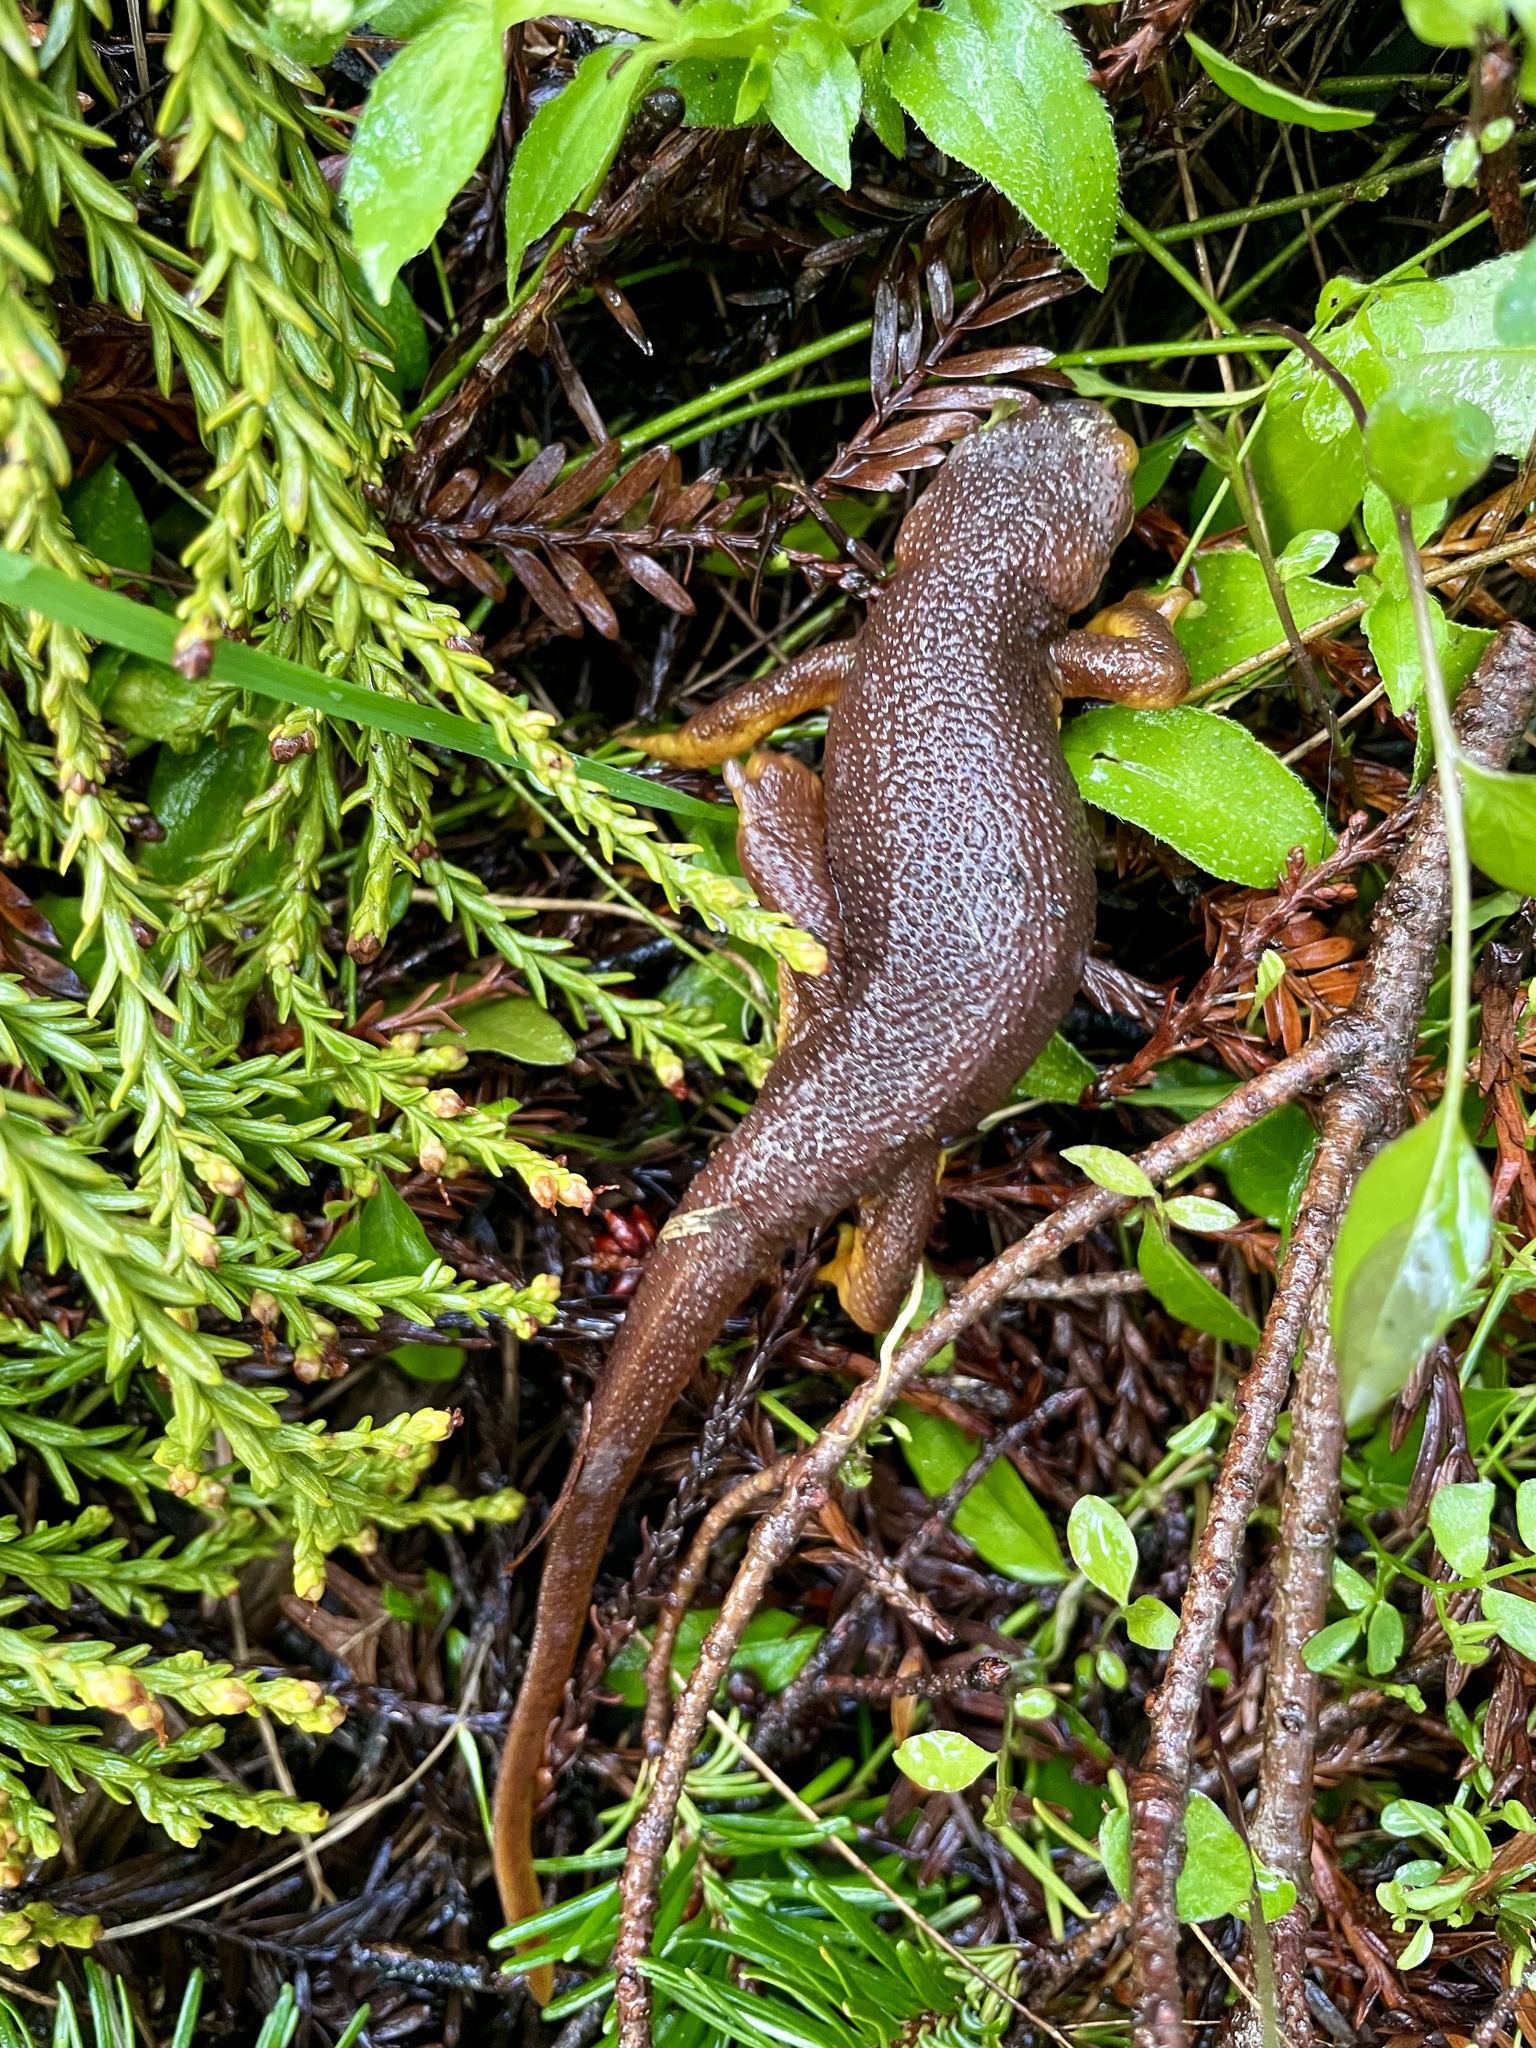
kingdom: Animalia
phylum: Chordata
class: Amphibia
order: Caudata
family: Salamandridae
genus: Taricha
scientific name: Taricha torosa
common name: California newt
